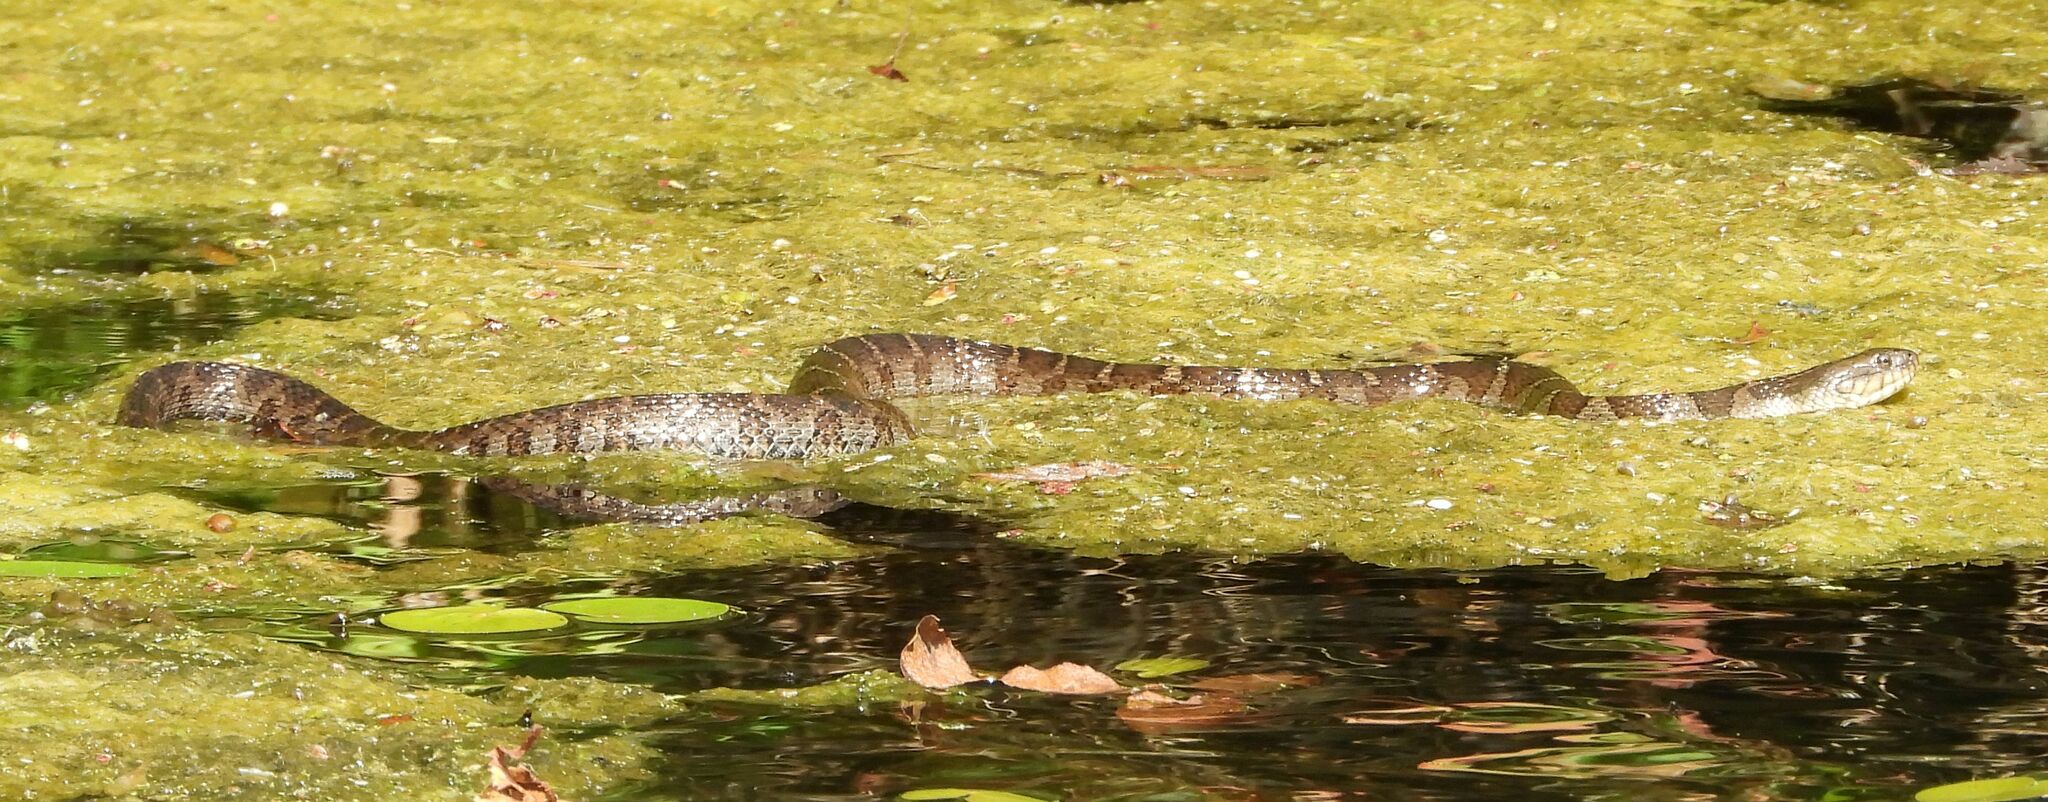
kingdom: Animalia
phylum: Chordata
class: Squamata
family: Colubridae
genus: Nerodia
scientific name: Nerodia sipedon
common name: Northern water snake
